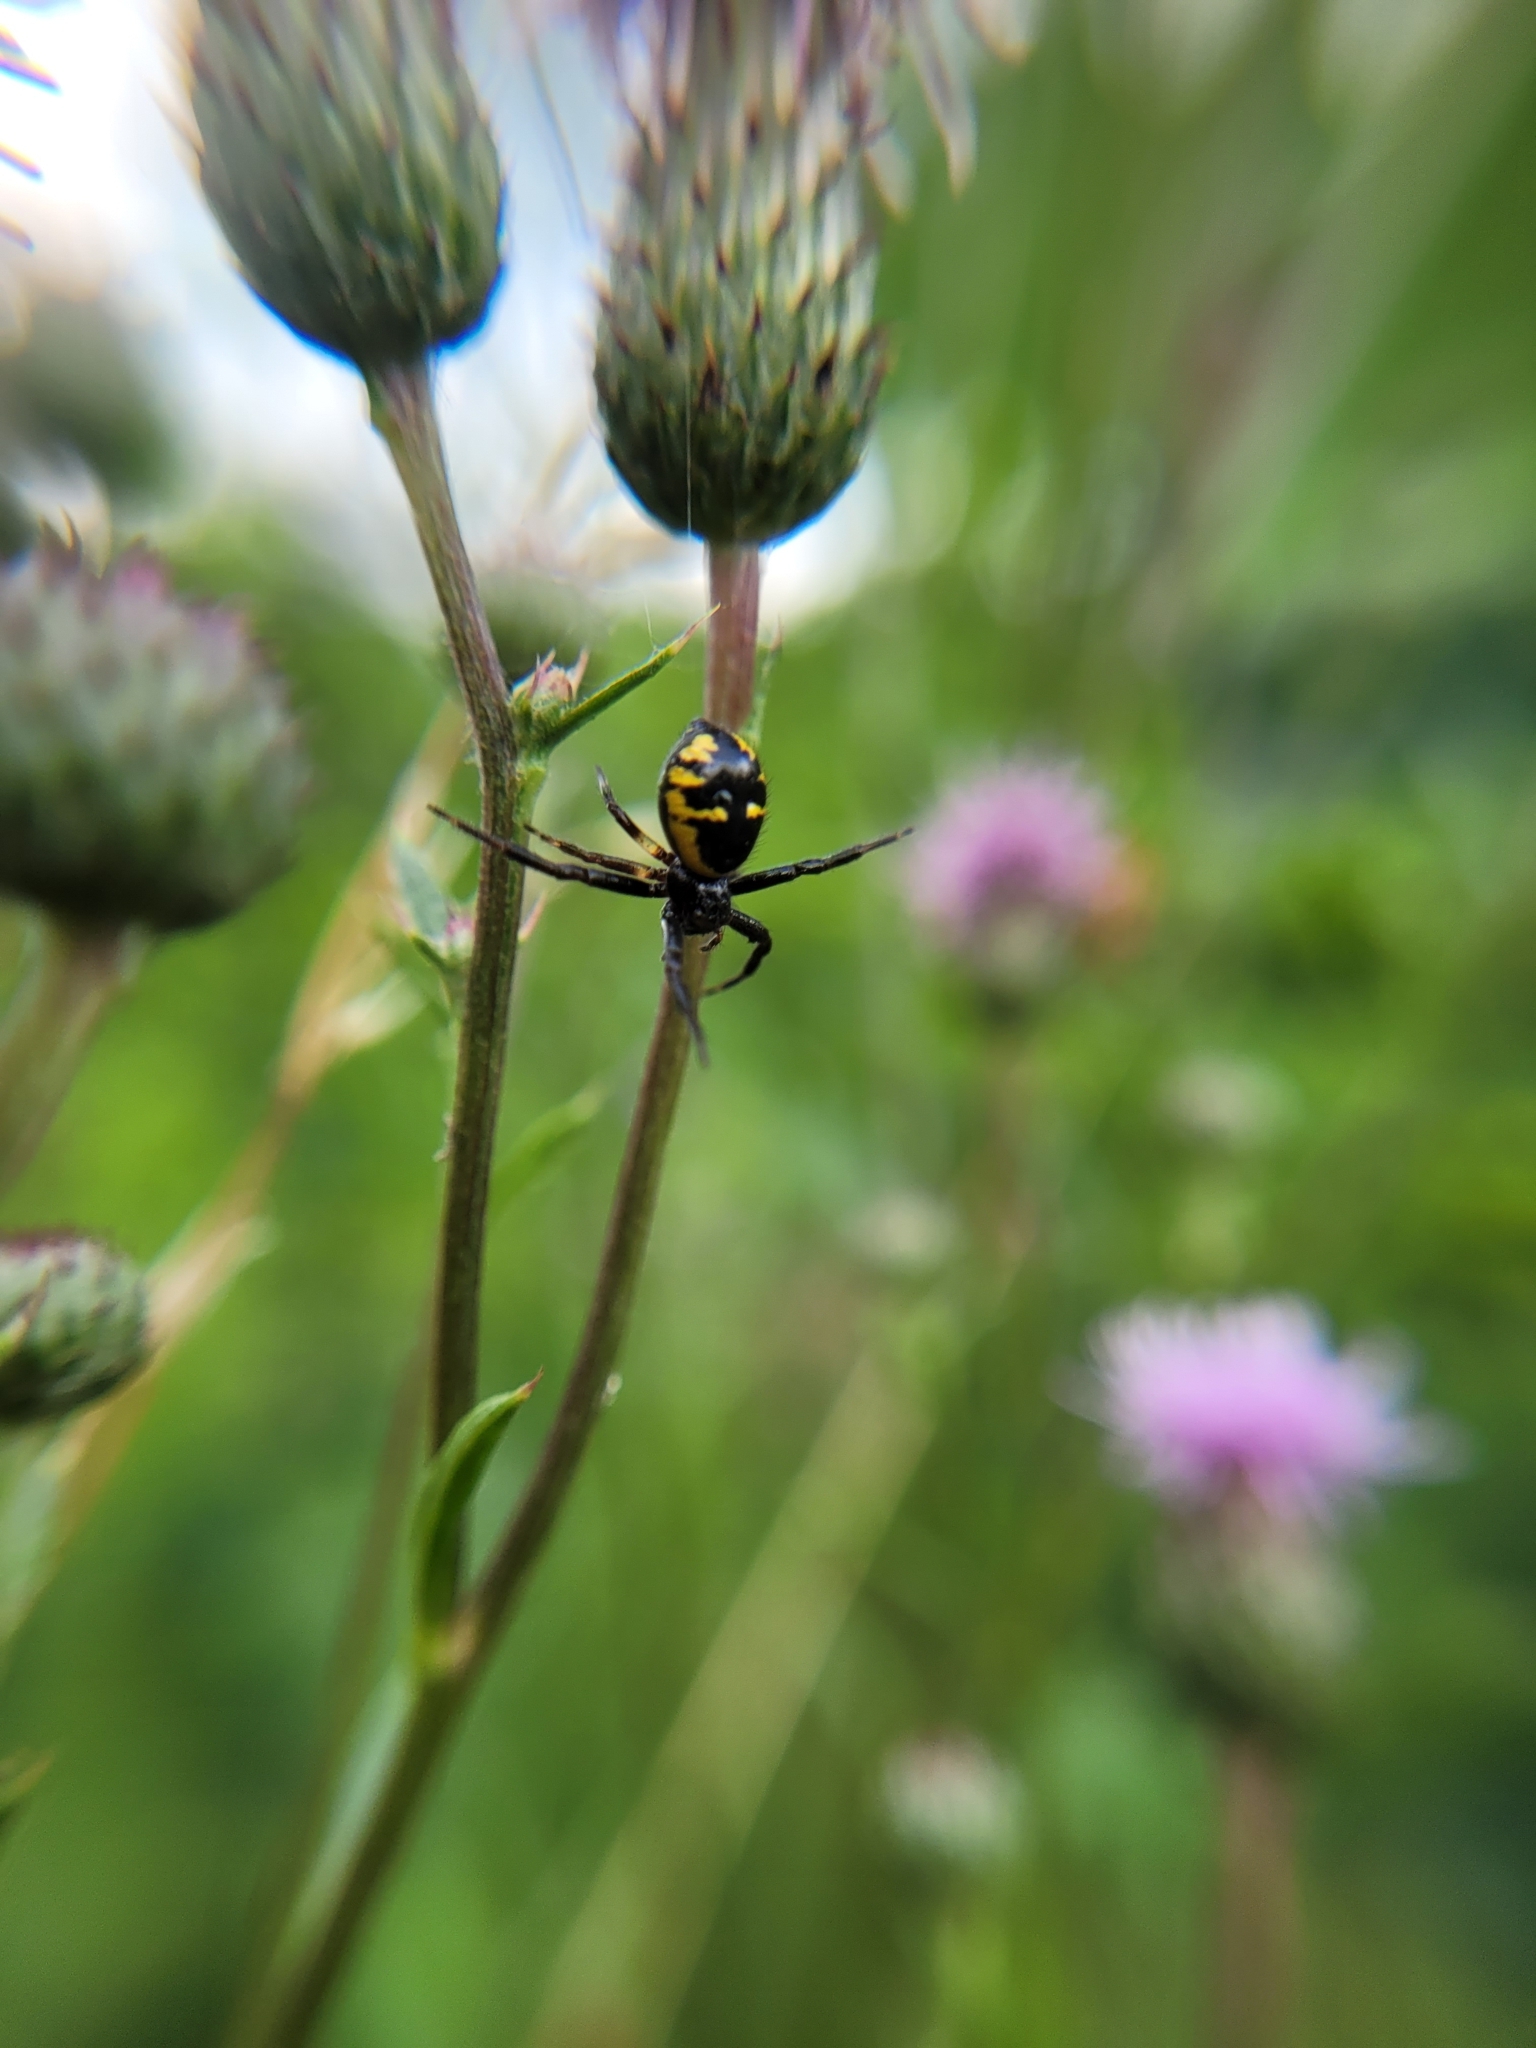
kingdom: Animalia
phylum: Arthropoda
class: Arachnida
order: Araneae
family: Thomisidae
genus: Synema
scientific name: Synema globosum
